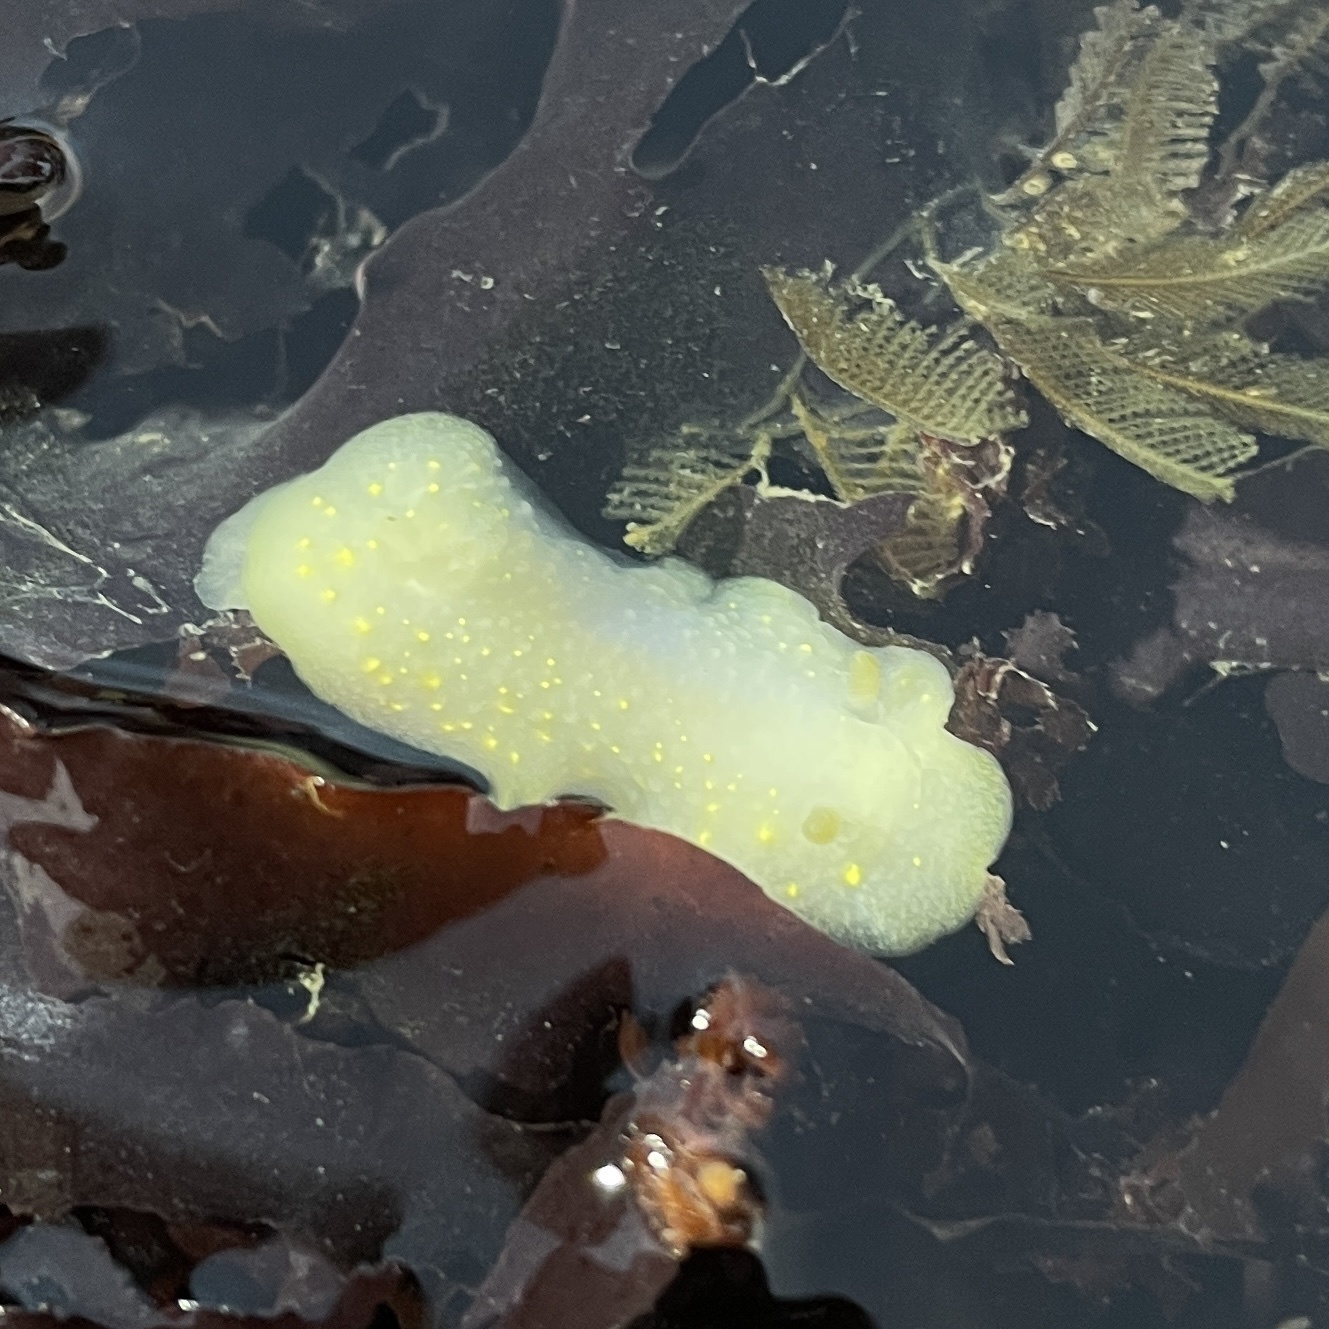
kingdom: Animalia
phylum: Mollusca
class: Gastropoda
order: Nudibranchia
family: Cadlinidae
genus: Cadlina
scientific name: Cadlina modesta
